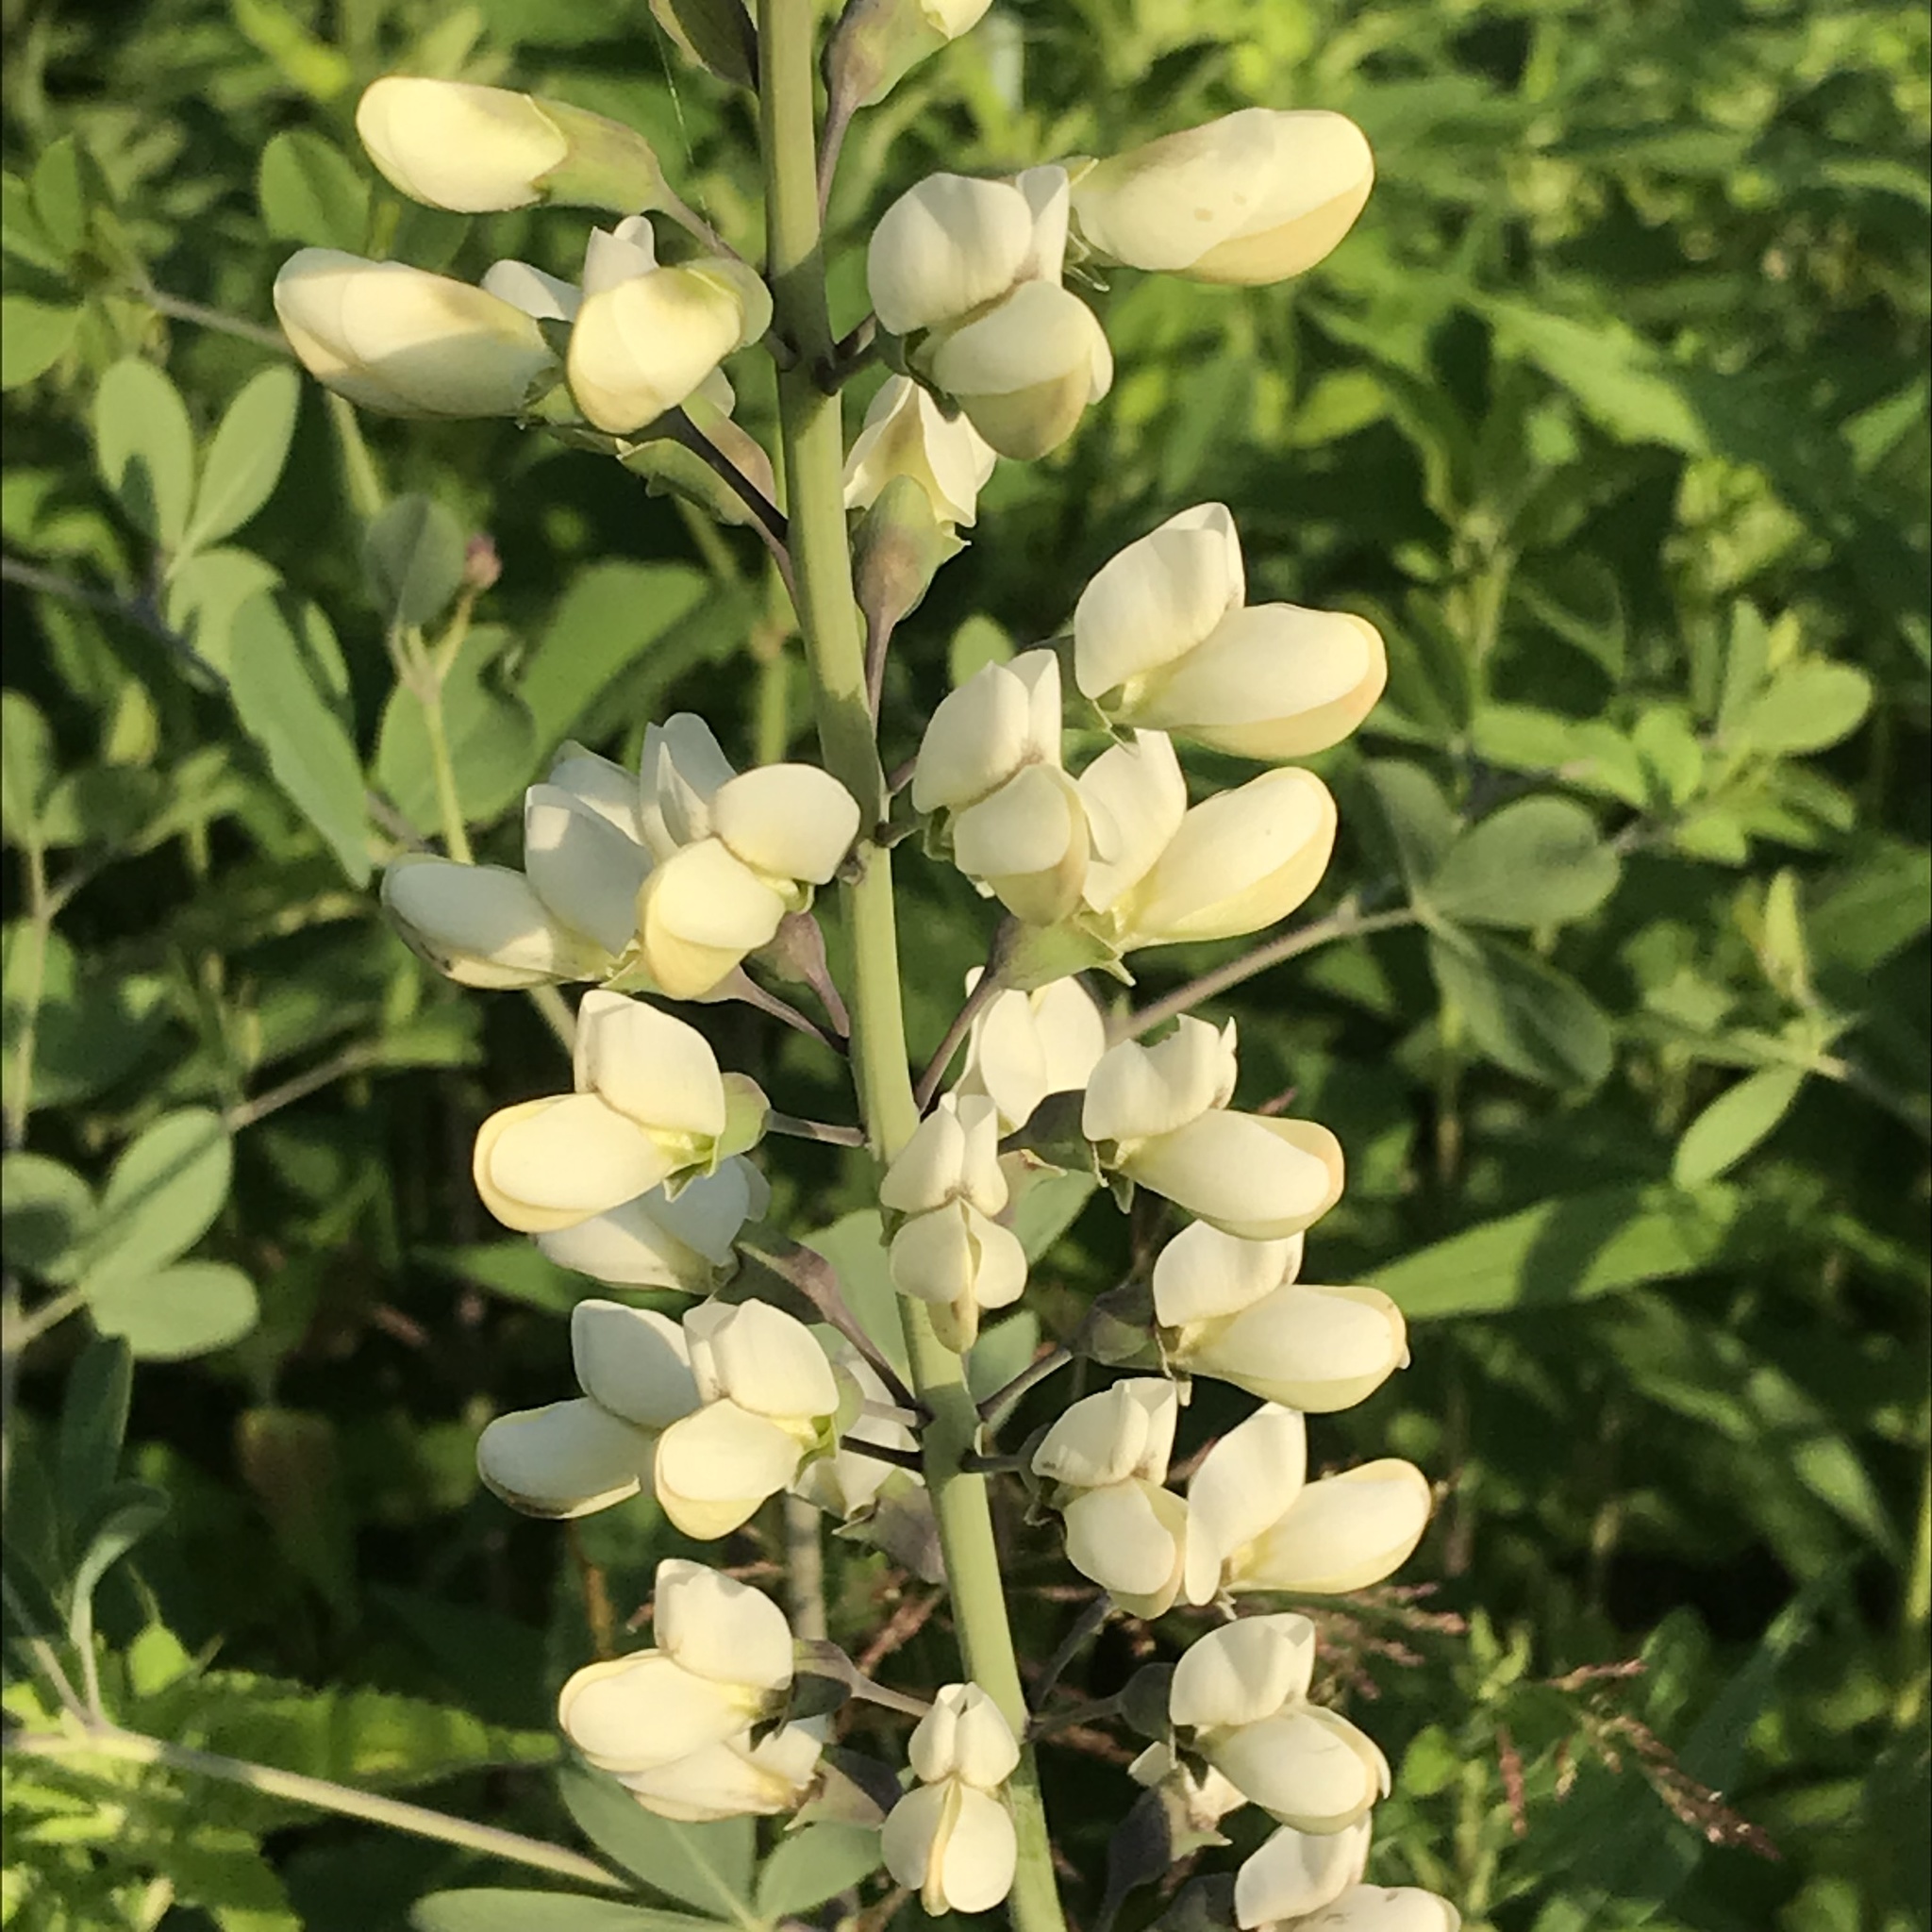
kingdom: Plantae
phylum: Tracheophyta
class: Magnoliopsida
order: Fabales
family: Fabaceae
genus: Baptisia
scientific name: Baptisia alba
